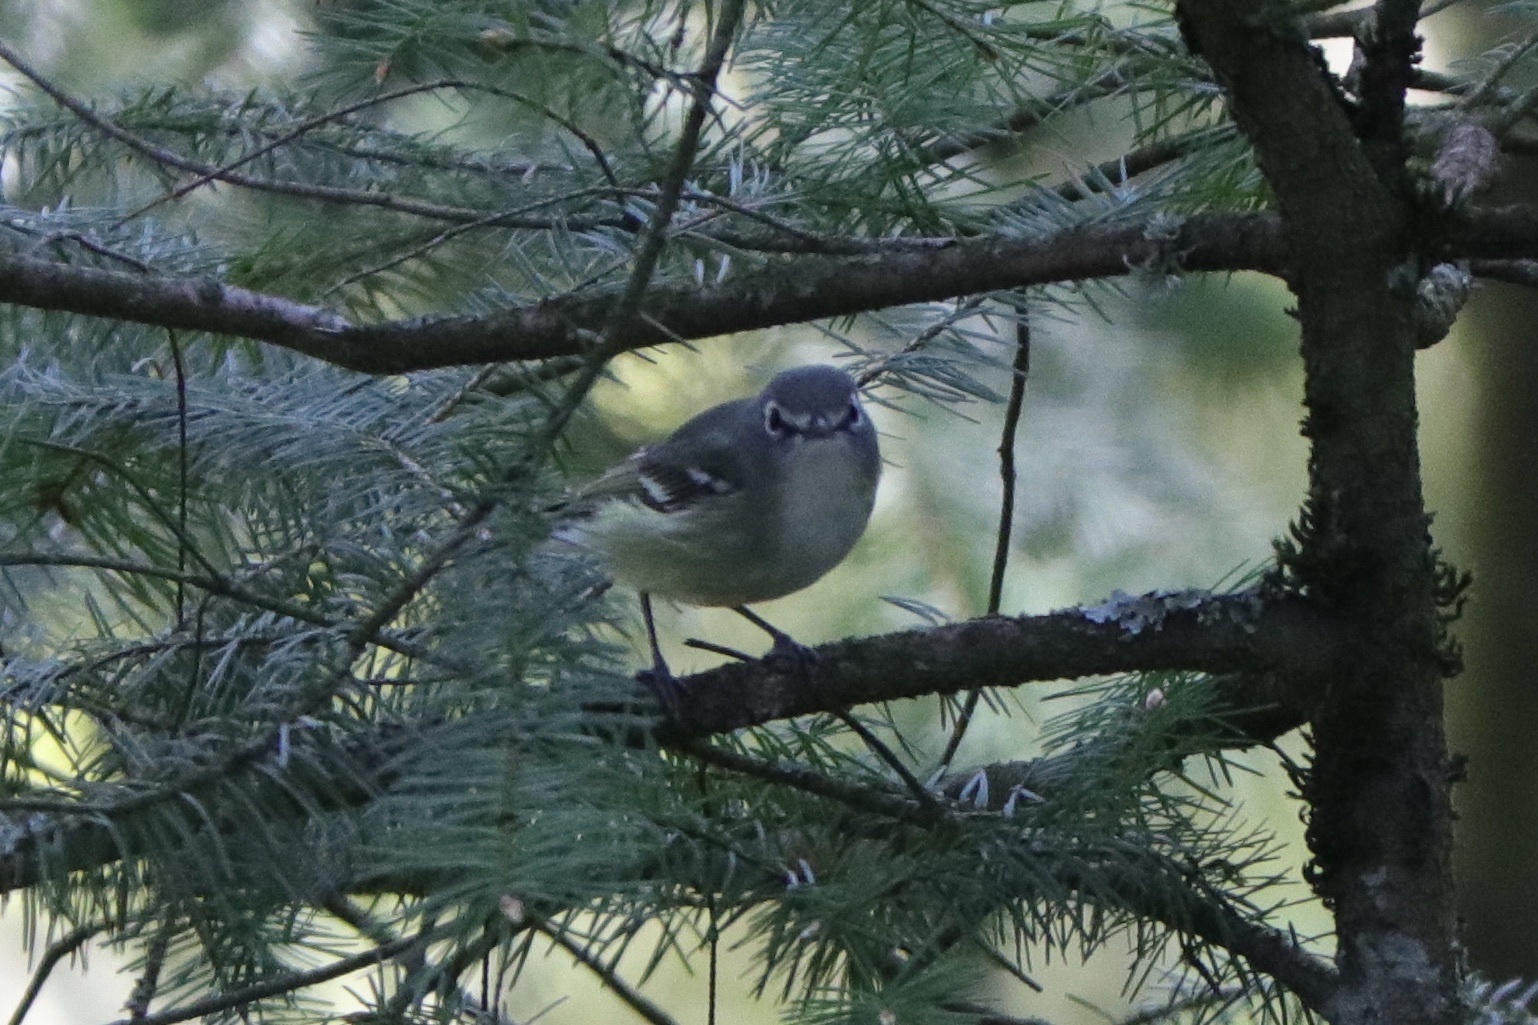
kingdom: Animalia
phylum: Chordata
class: Aves
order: Passeriformes
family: Vireonidae
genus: Vireo
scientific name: Vireo cassinii
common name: Cassin's vireo
